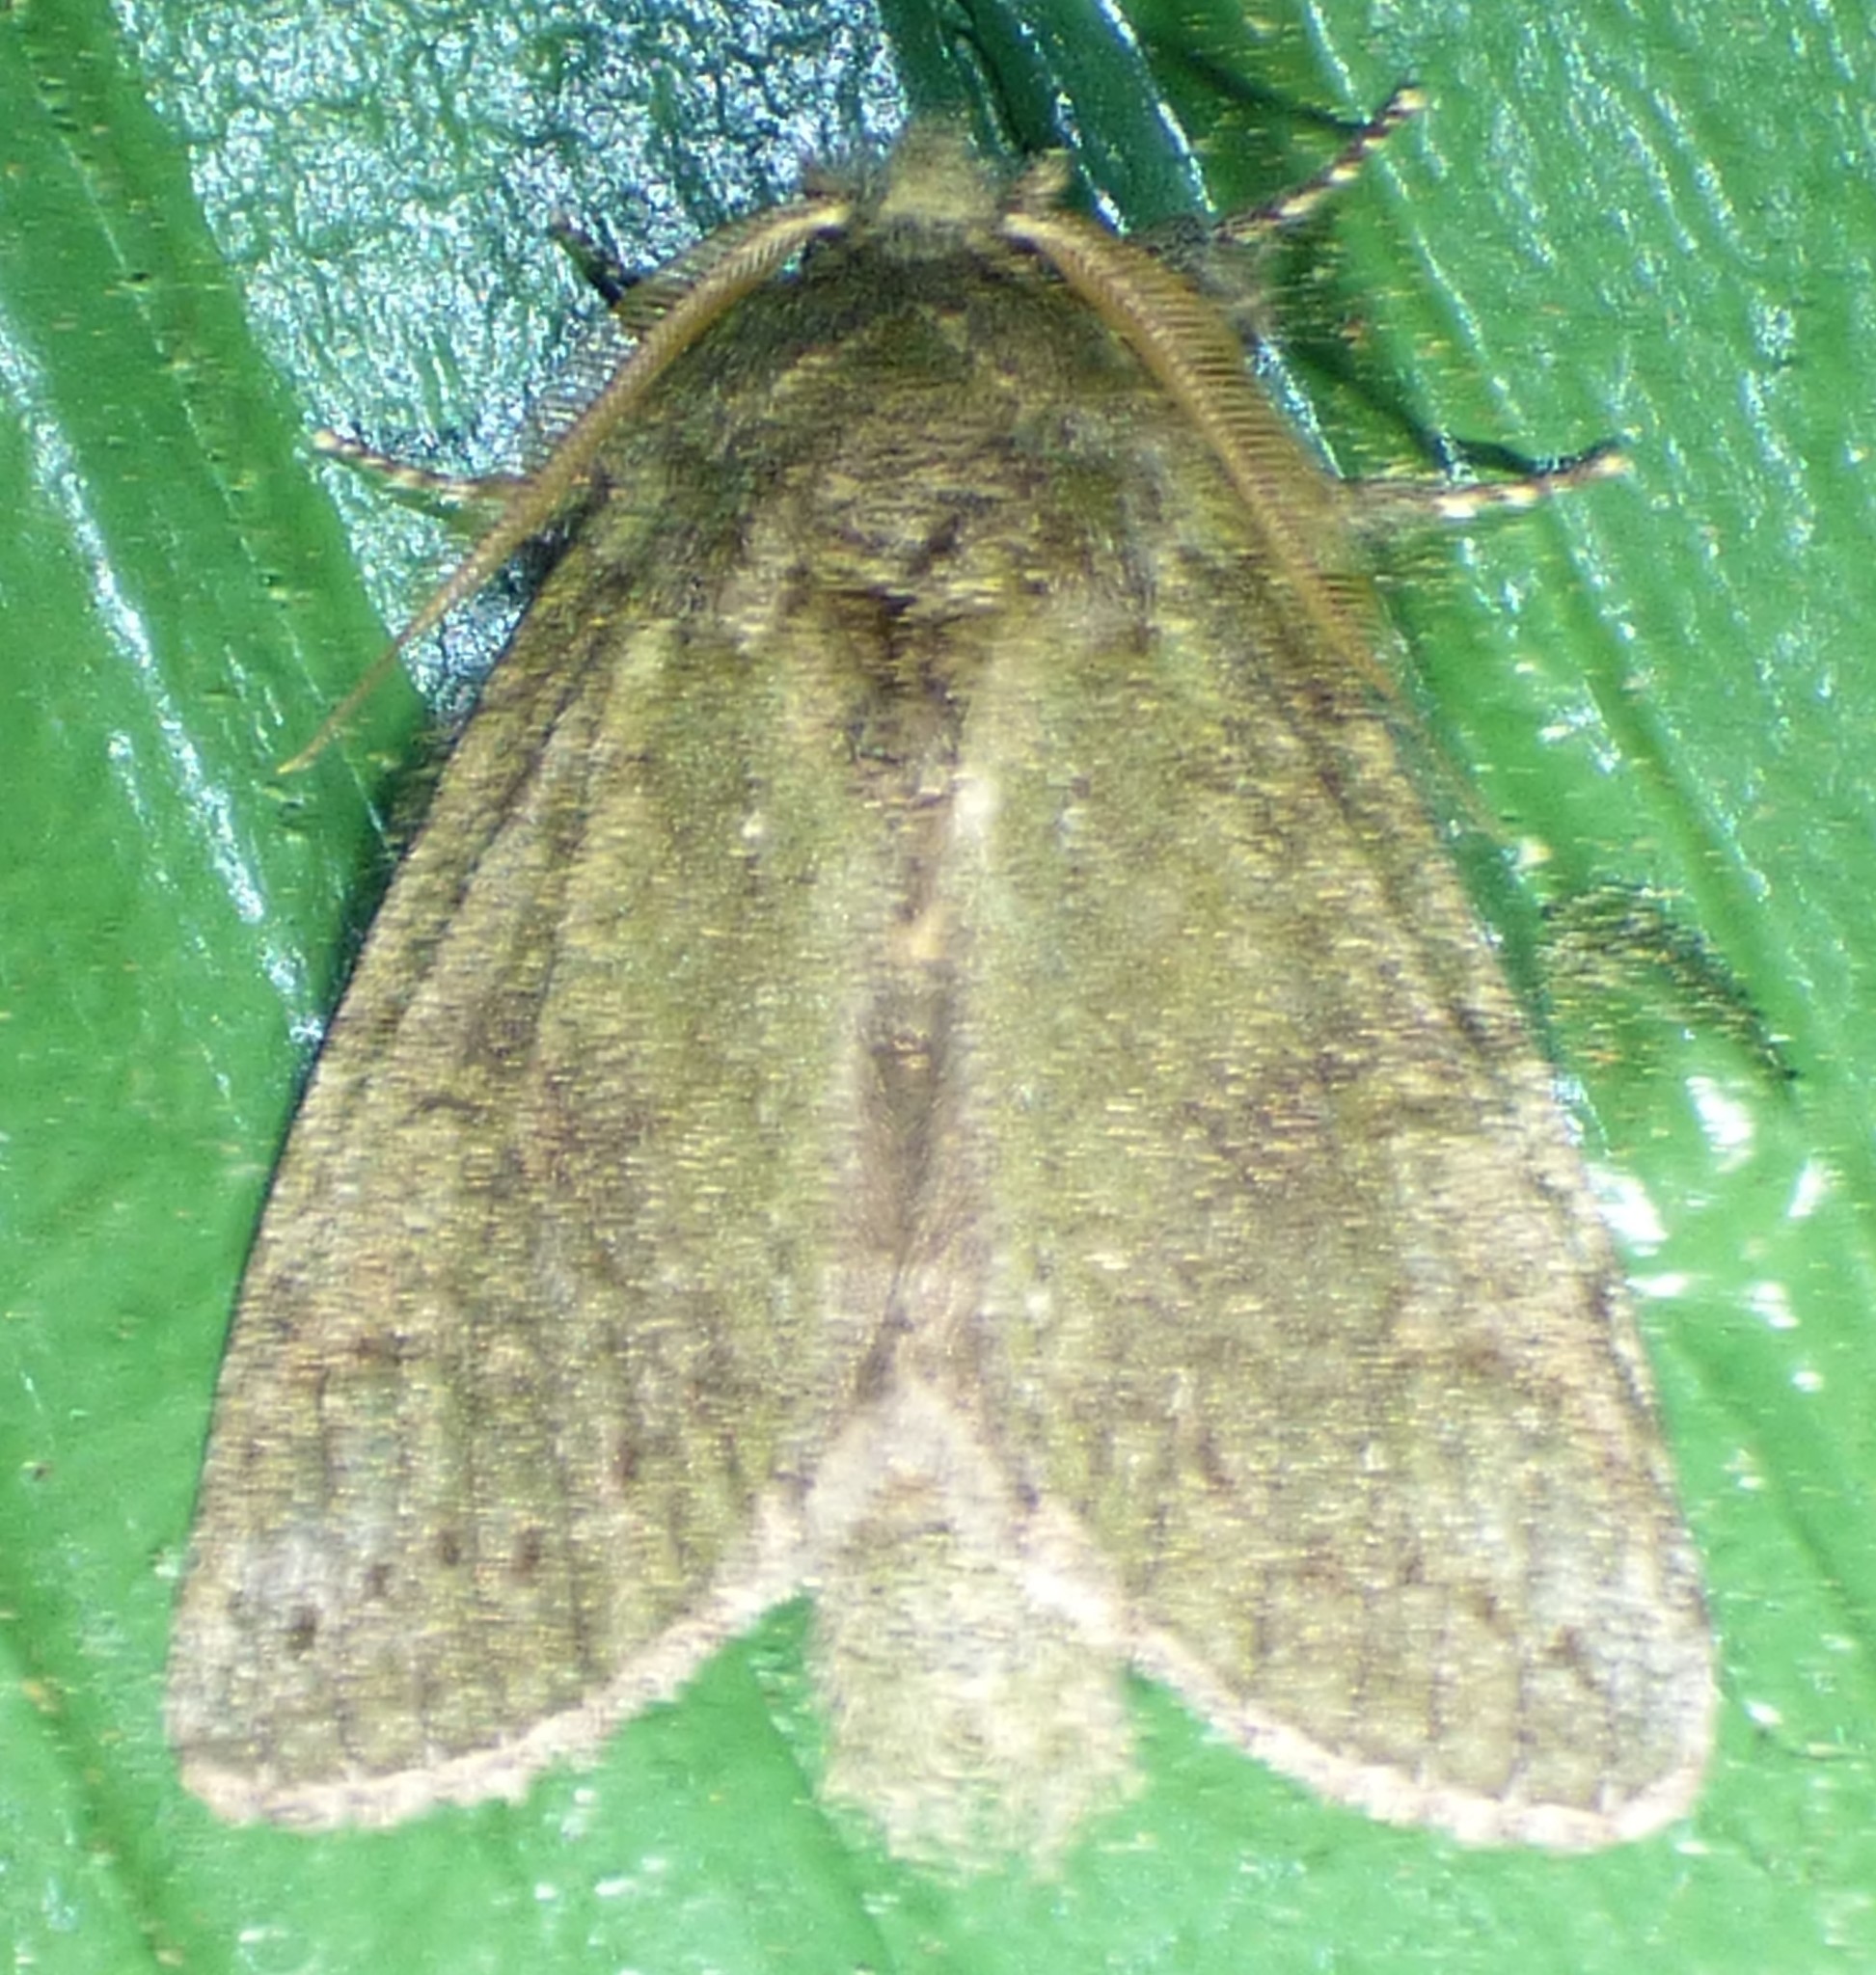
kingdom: Animalia
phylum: Arthropoda
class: Insecta
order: Lepidoptera
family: Notodontidae
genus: Disphragis
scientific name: Disphragis Cecrita guttivitta
